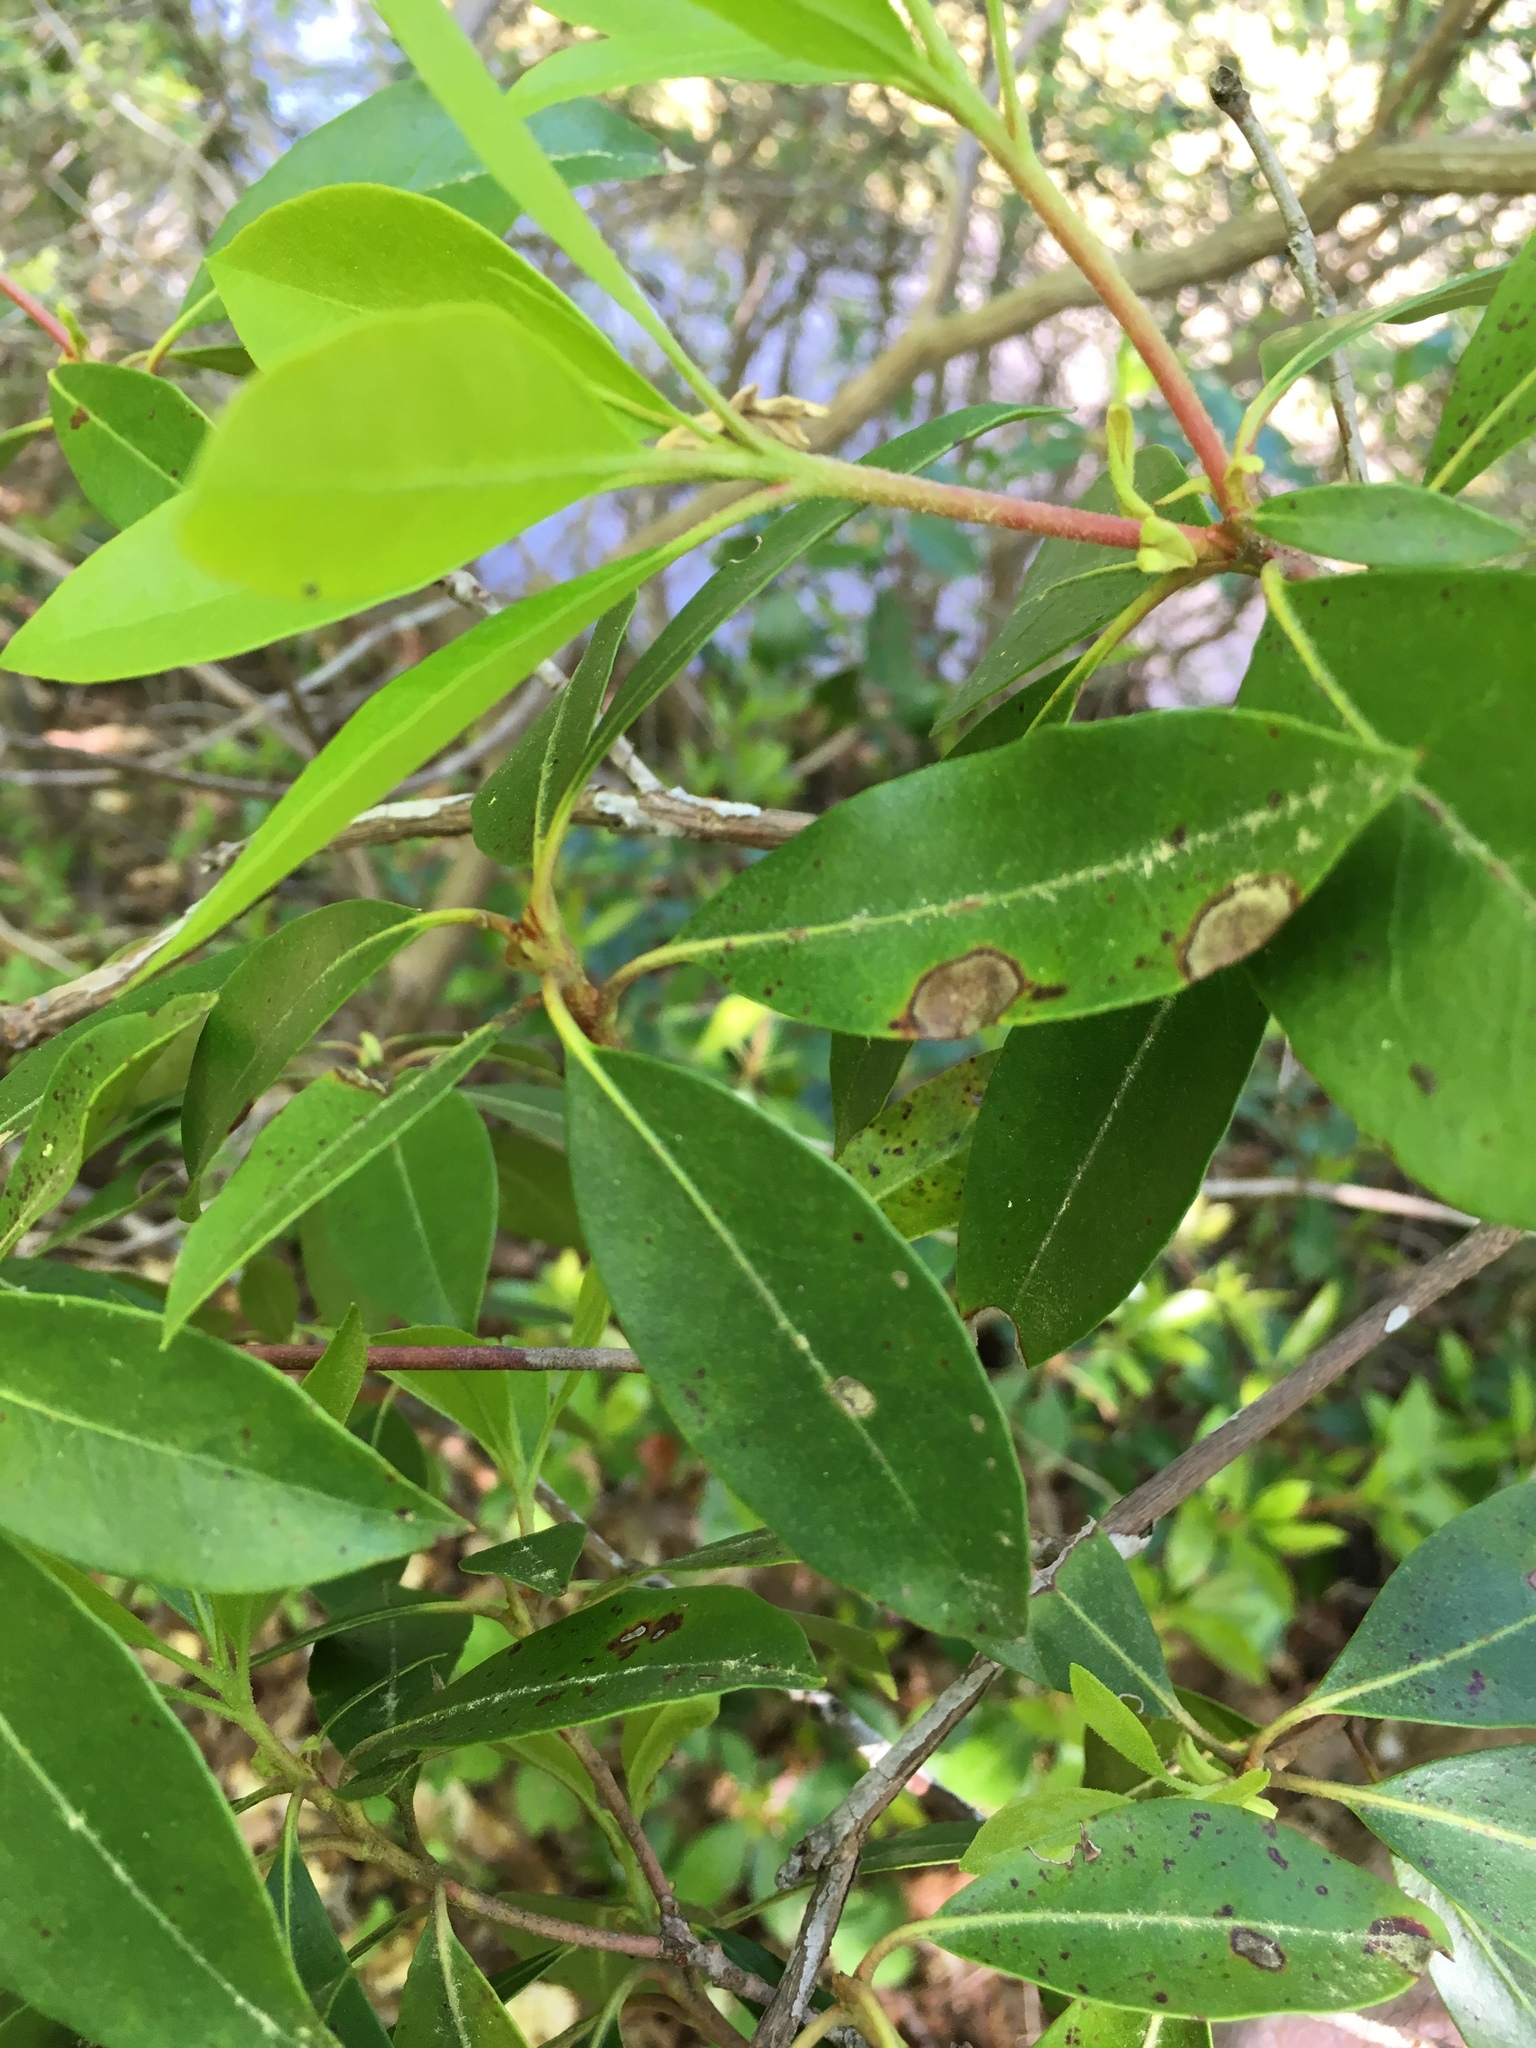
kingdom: Plantae
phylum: Tracheophyta
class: Magnoliopsida
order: Ericales
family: Ericaceae
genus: Kalmia
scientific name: Kalmia latifolia
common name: Mountain-laurel
